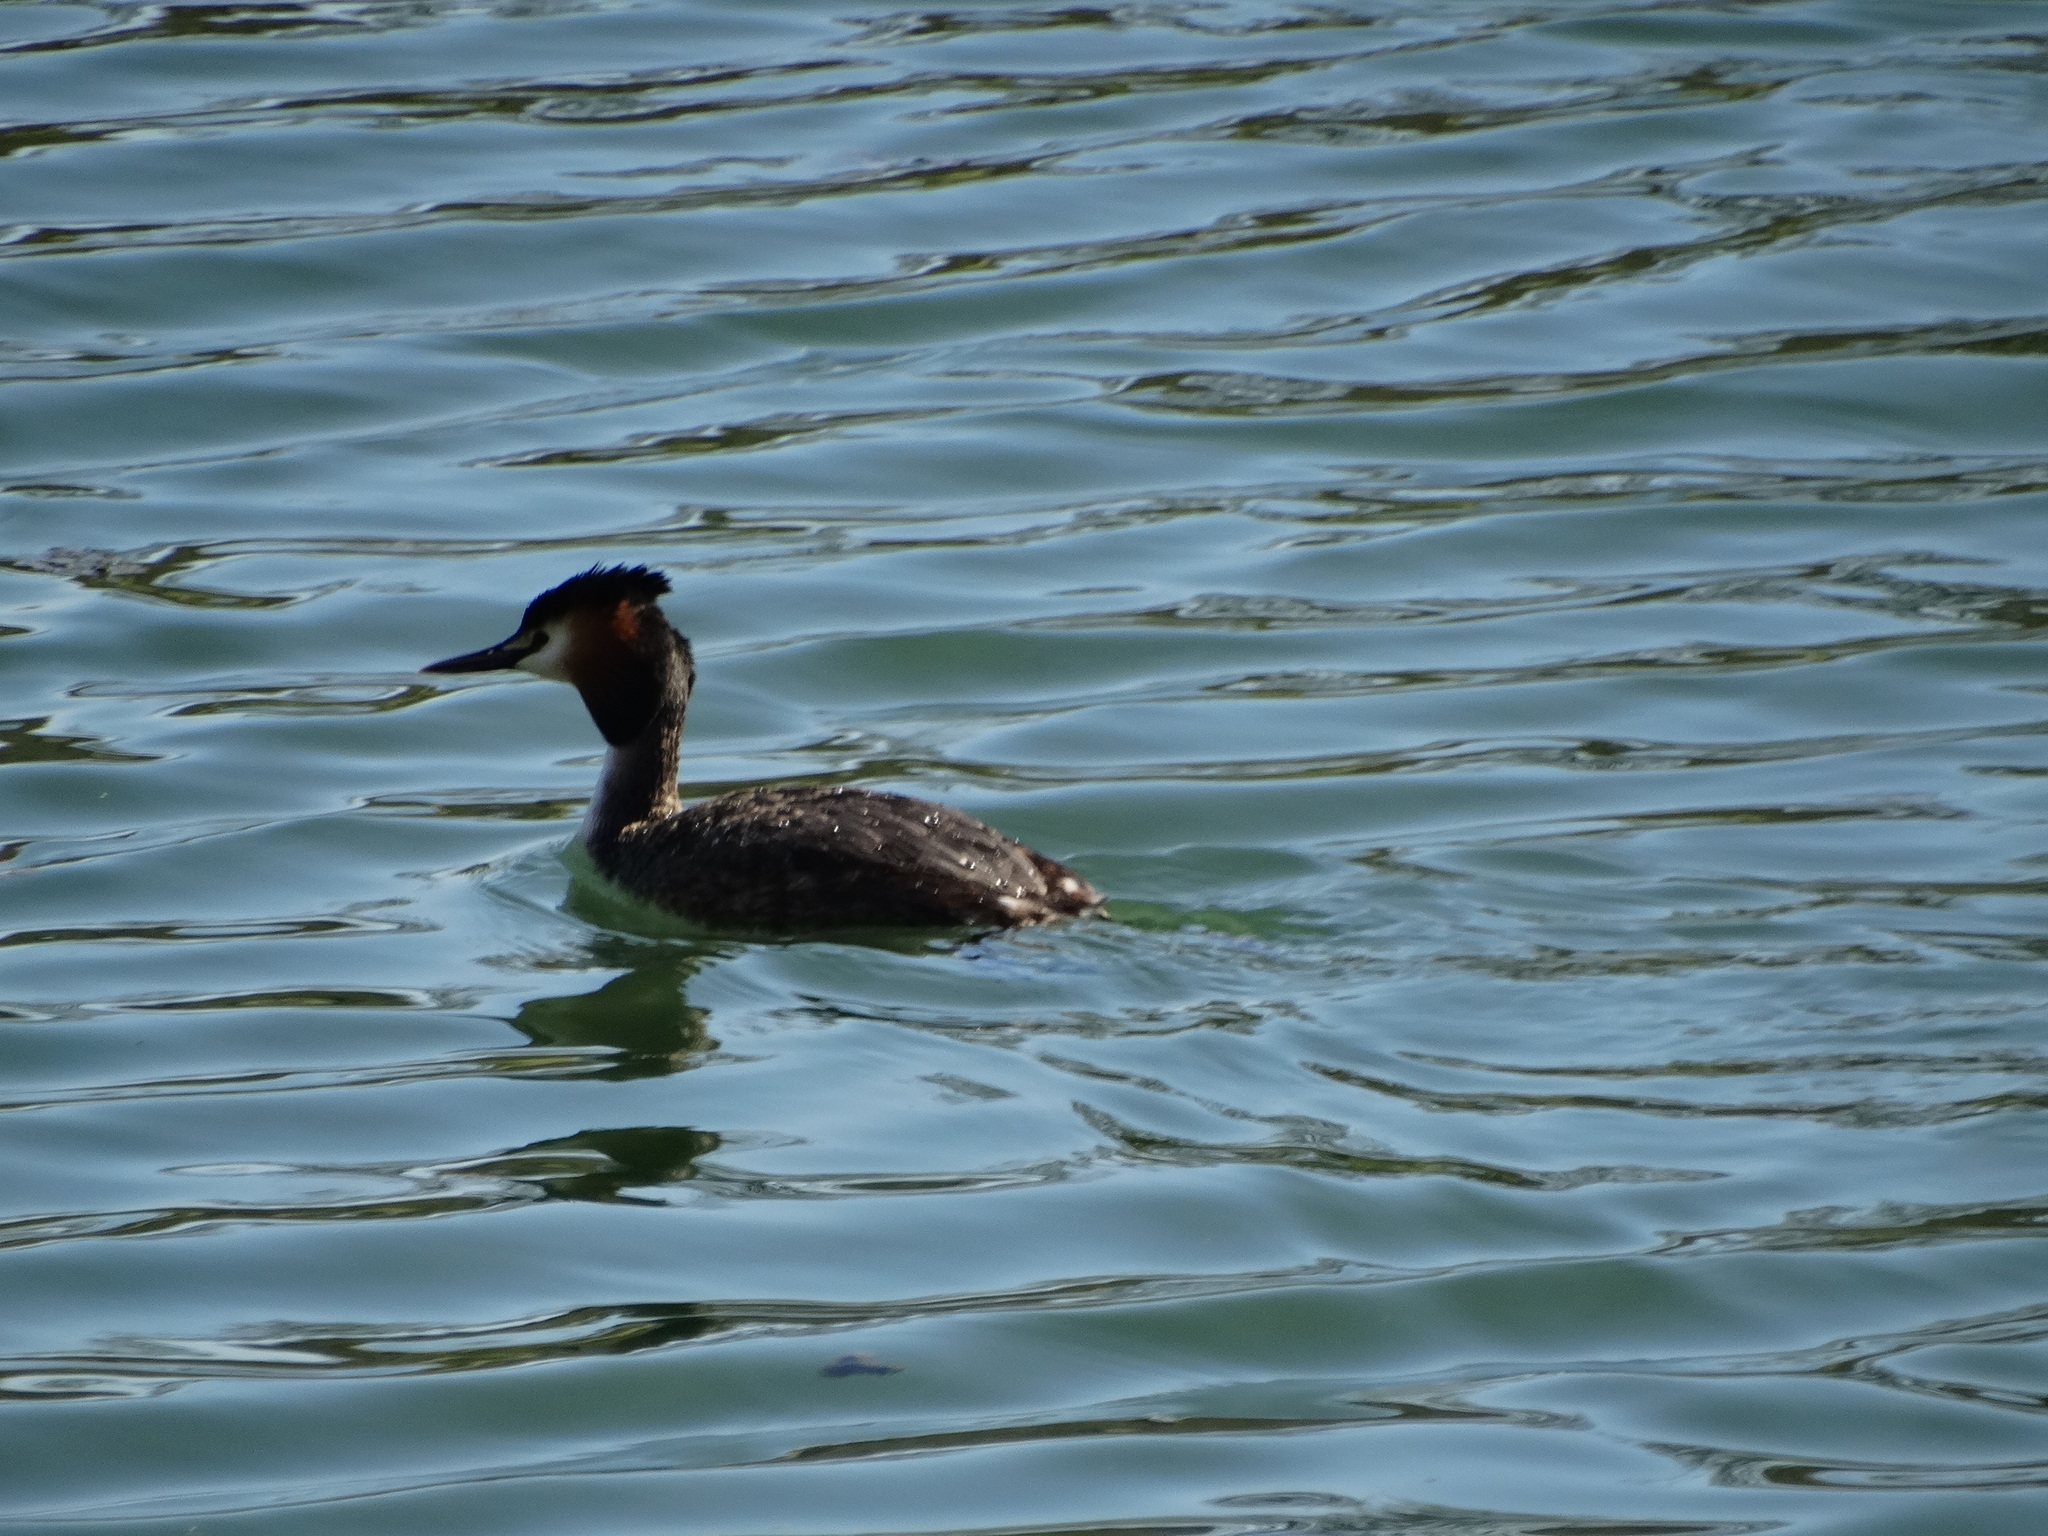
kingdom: Animalia
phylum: Chordata
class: Aves
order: Podicipediformes
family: Podicipedidae
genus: Podiceps
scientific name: Podiceps cristatus
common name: Great crested grebe
